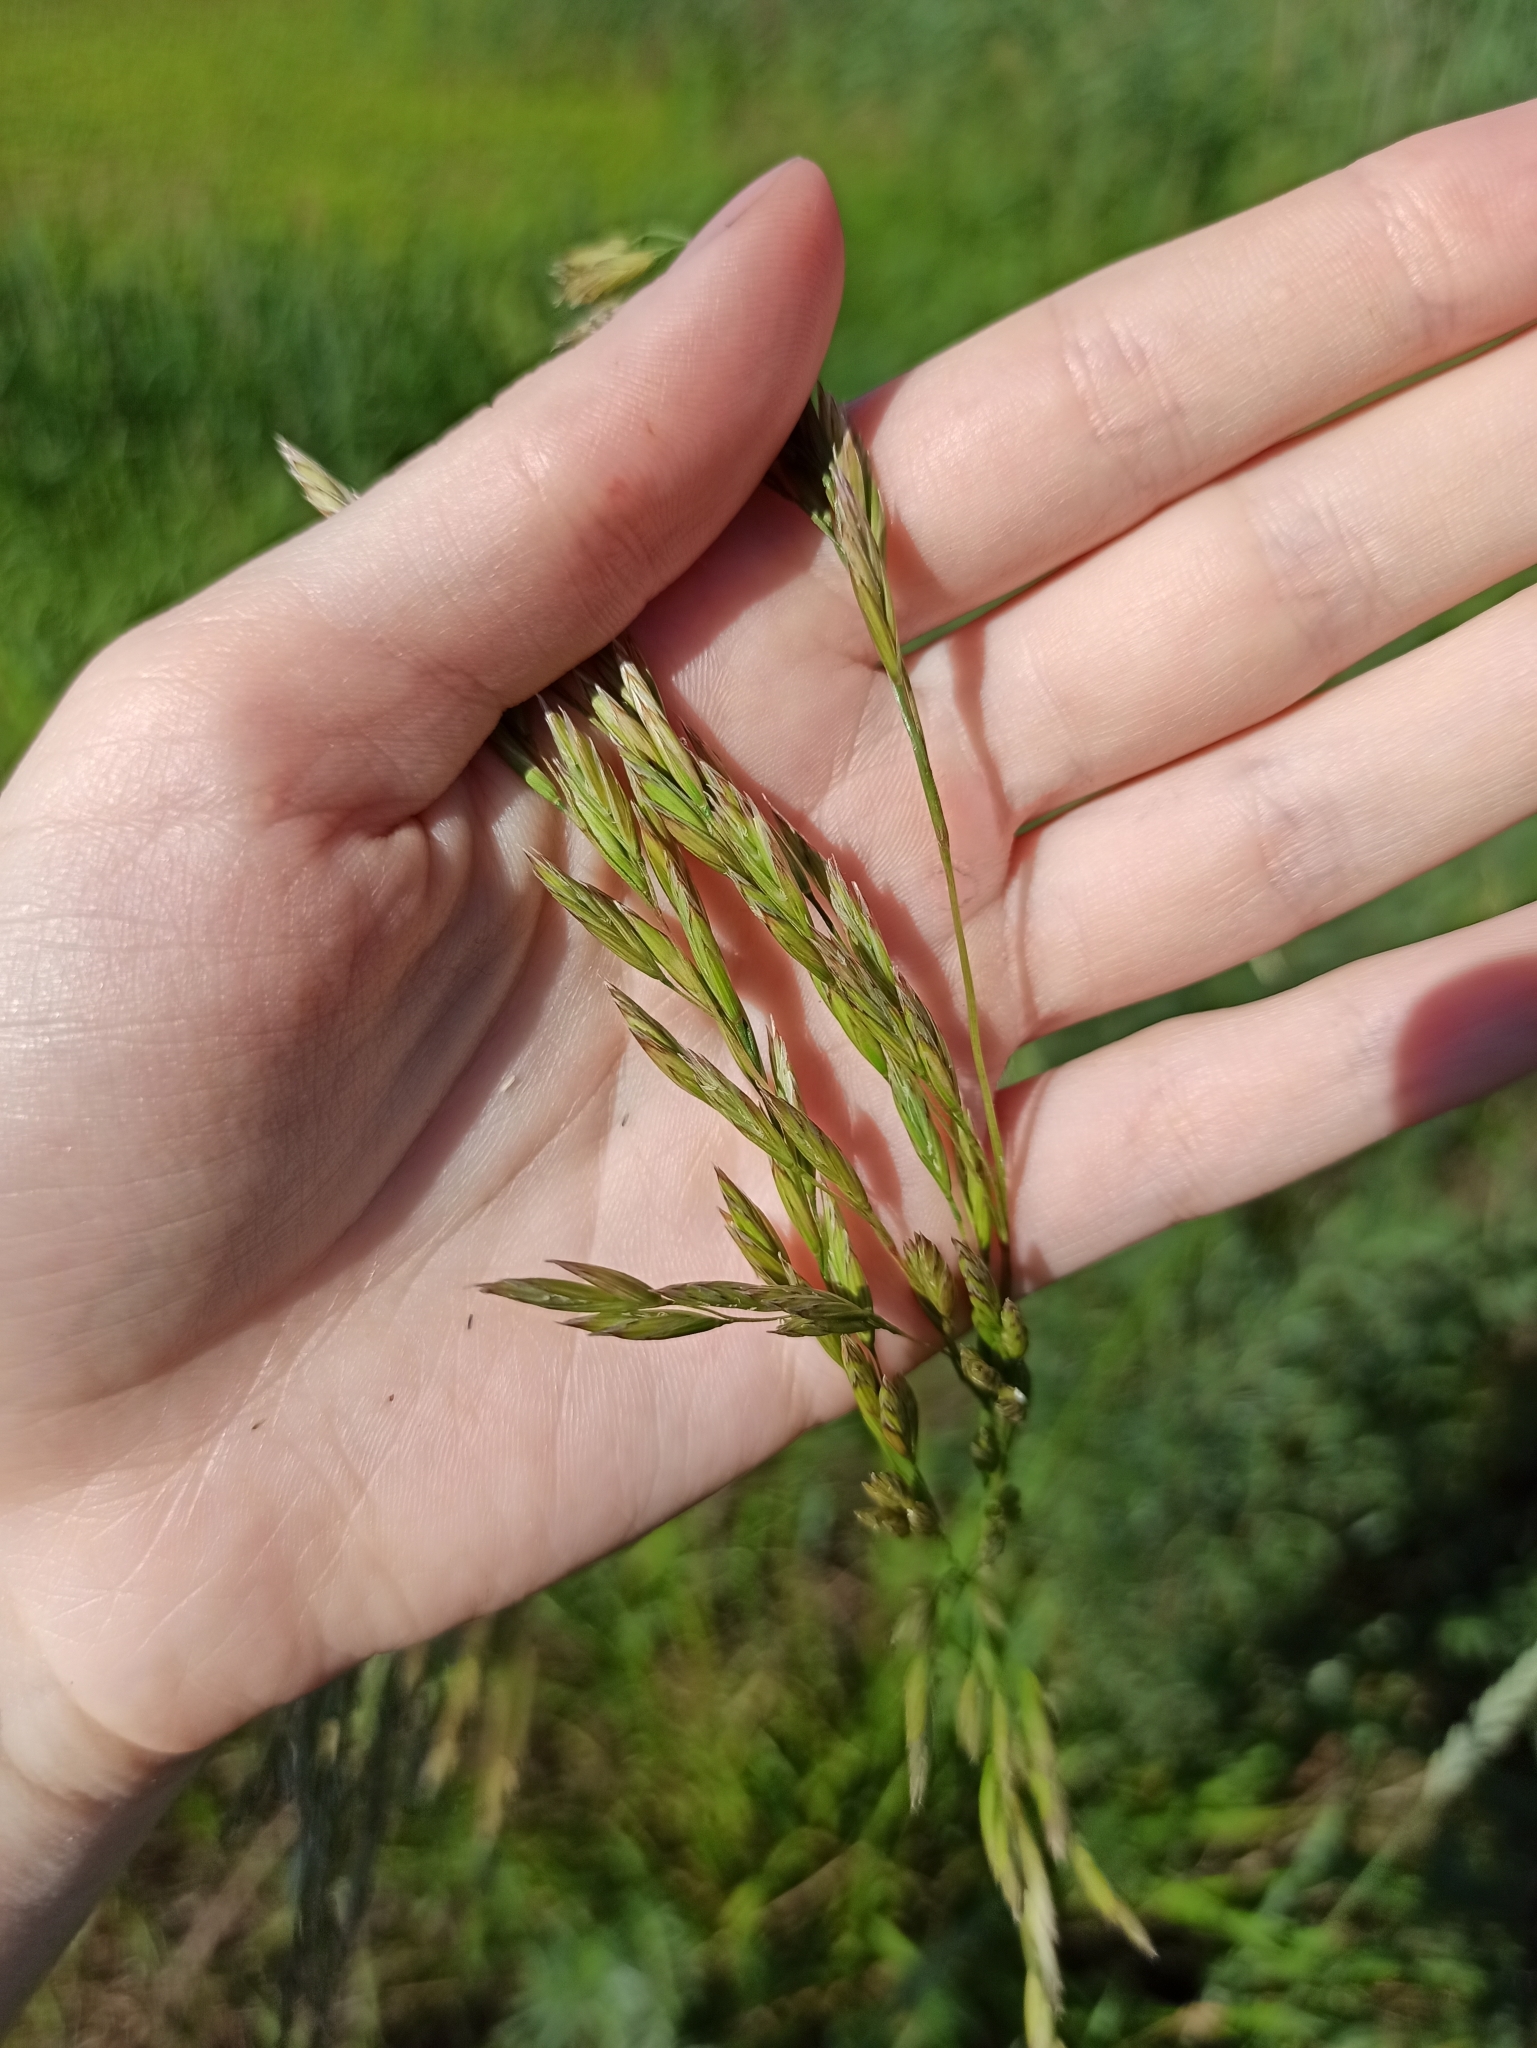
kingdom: Plantae
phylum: Tracheophyta
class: Liliopsida
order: Poales
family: Poaceae
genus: Lolium
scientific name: Lolium arundinaceum
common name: Reed fescue
